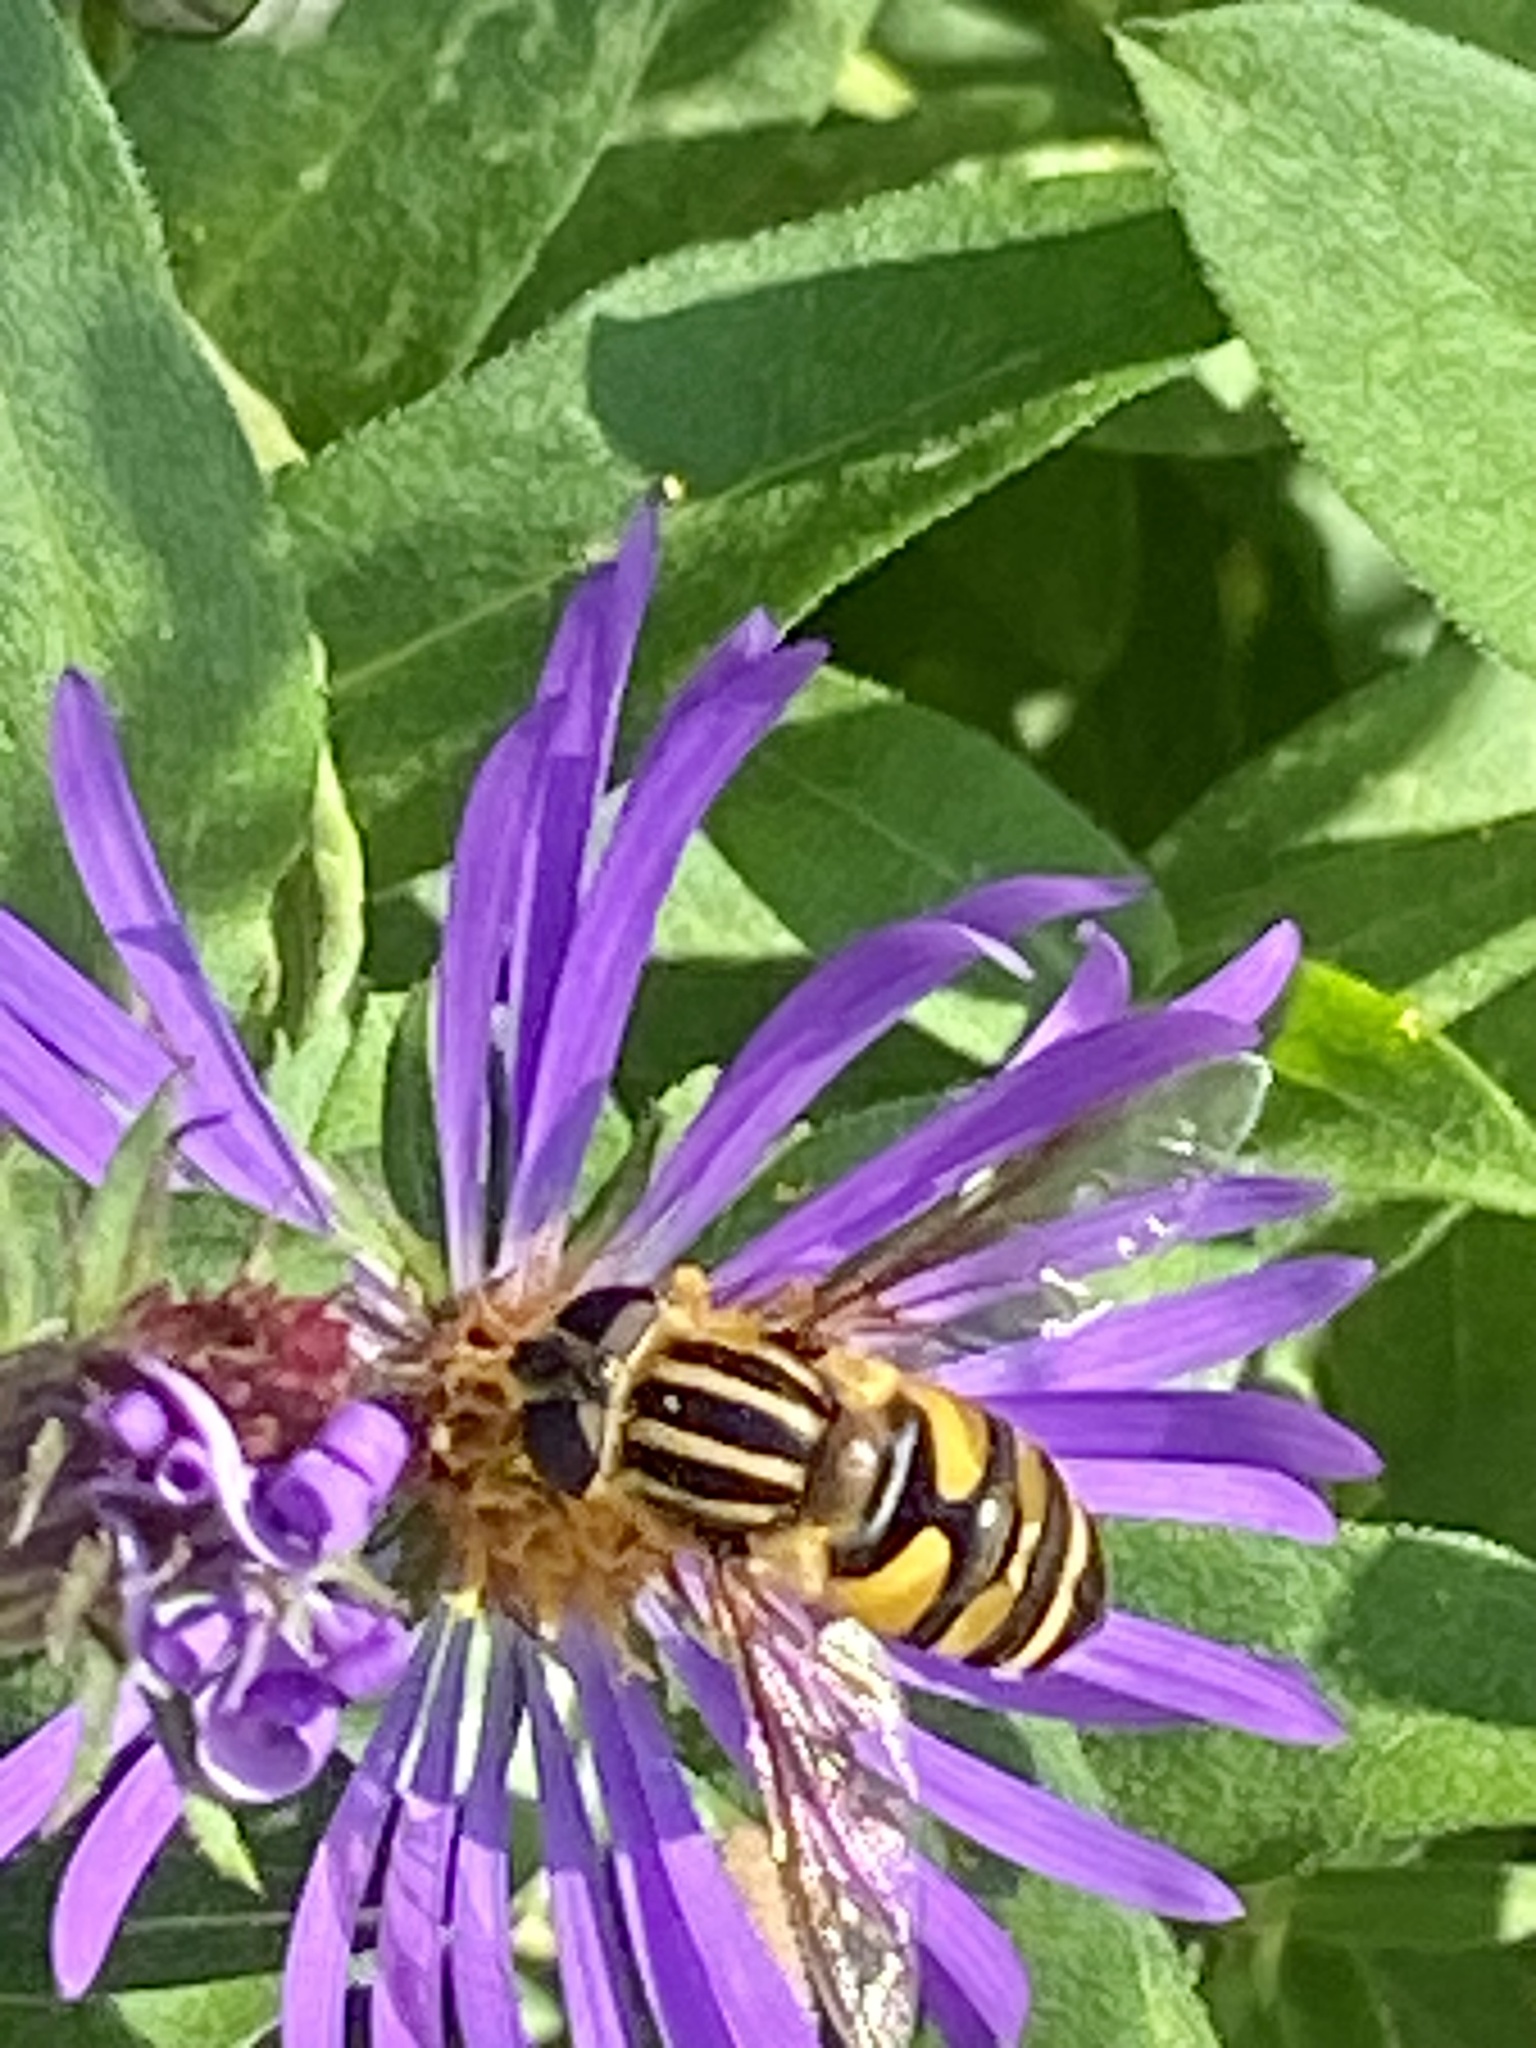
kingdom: Animalia
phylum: Arthropoda
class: Insecta
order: Diptera
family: Syrphidae
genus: Helophilus
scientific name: Helophilus fasciatus
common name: Narrow-headed marsh fly
